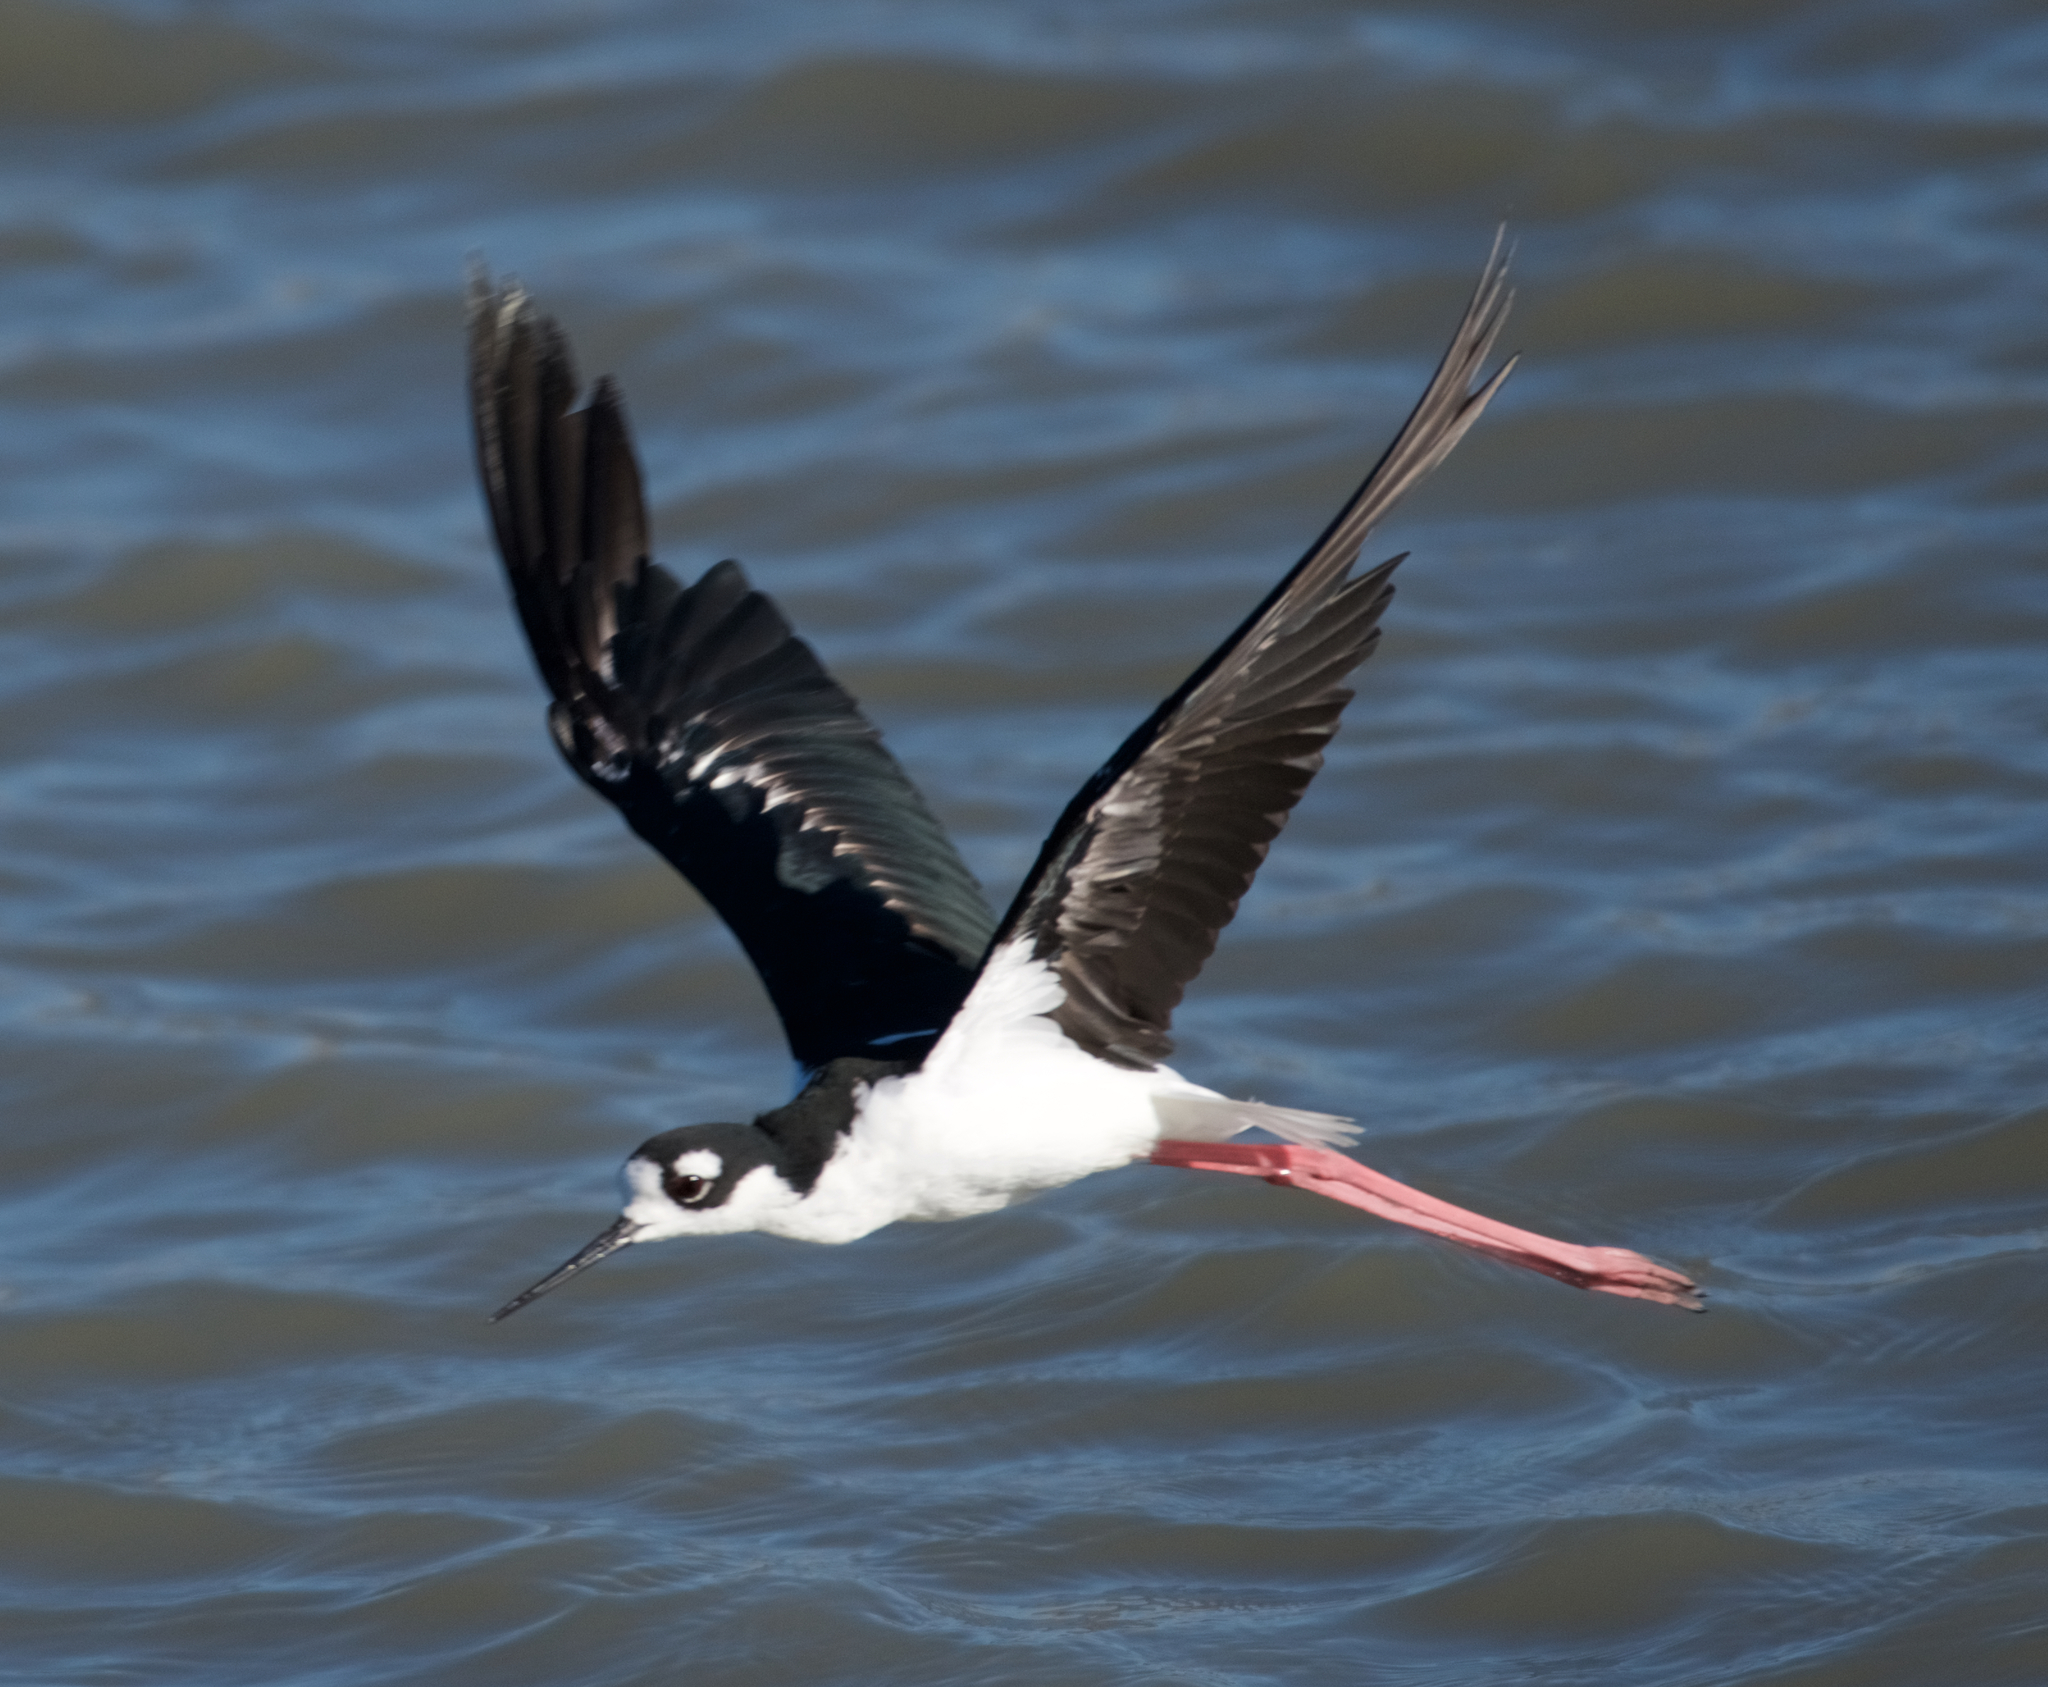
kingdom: Animalia
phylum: Chordata
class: Aves
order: Charadriiformes
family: Recurvirostridae
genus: Himantopus
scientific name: Himantopus mexicanus
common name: Black-necked stilt
